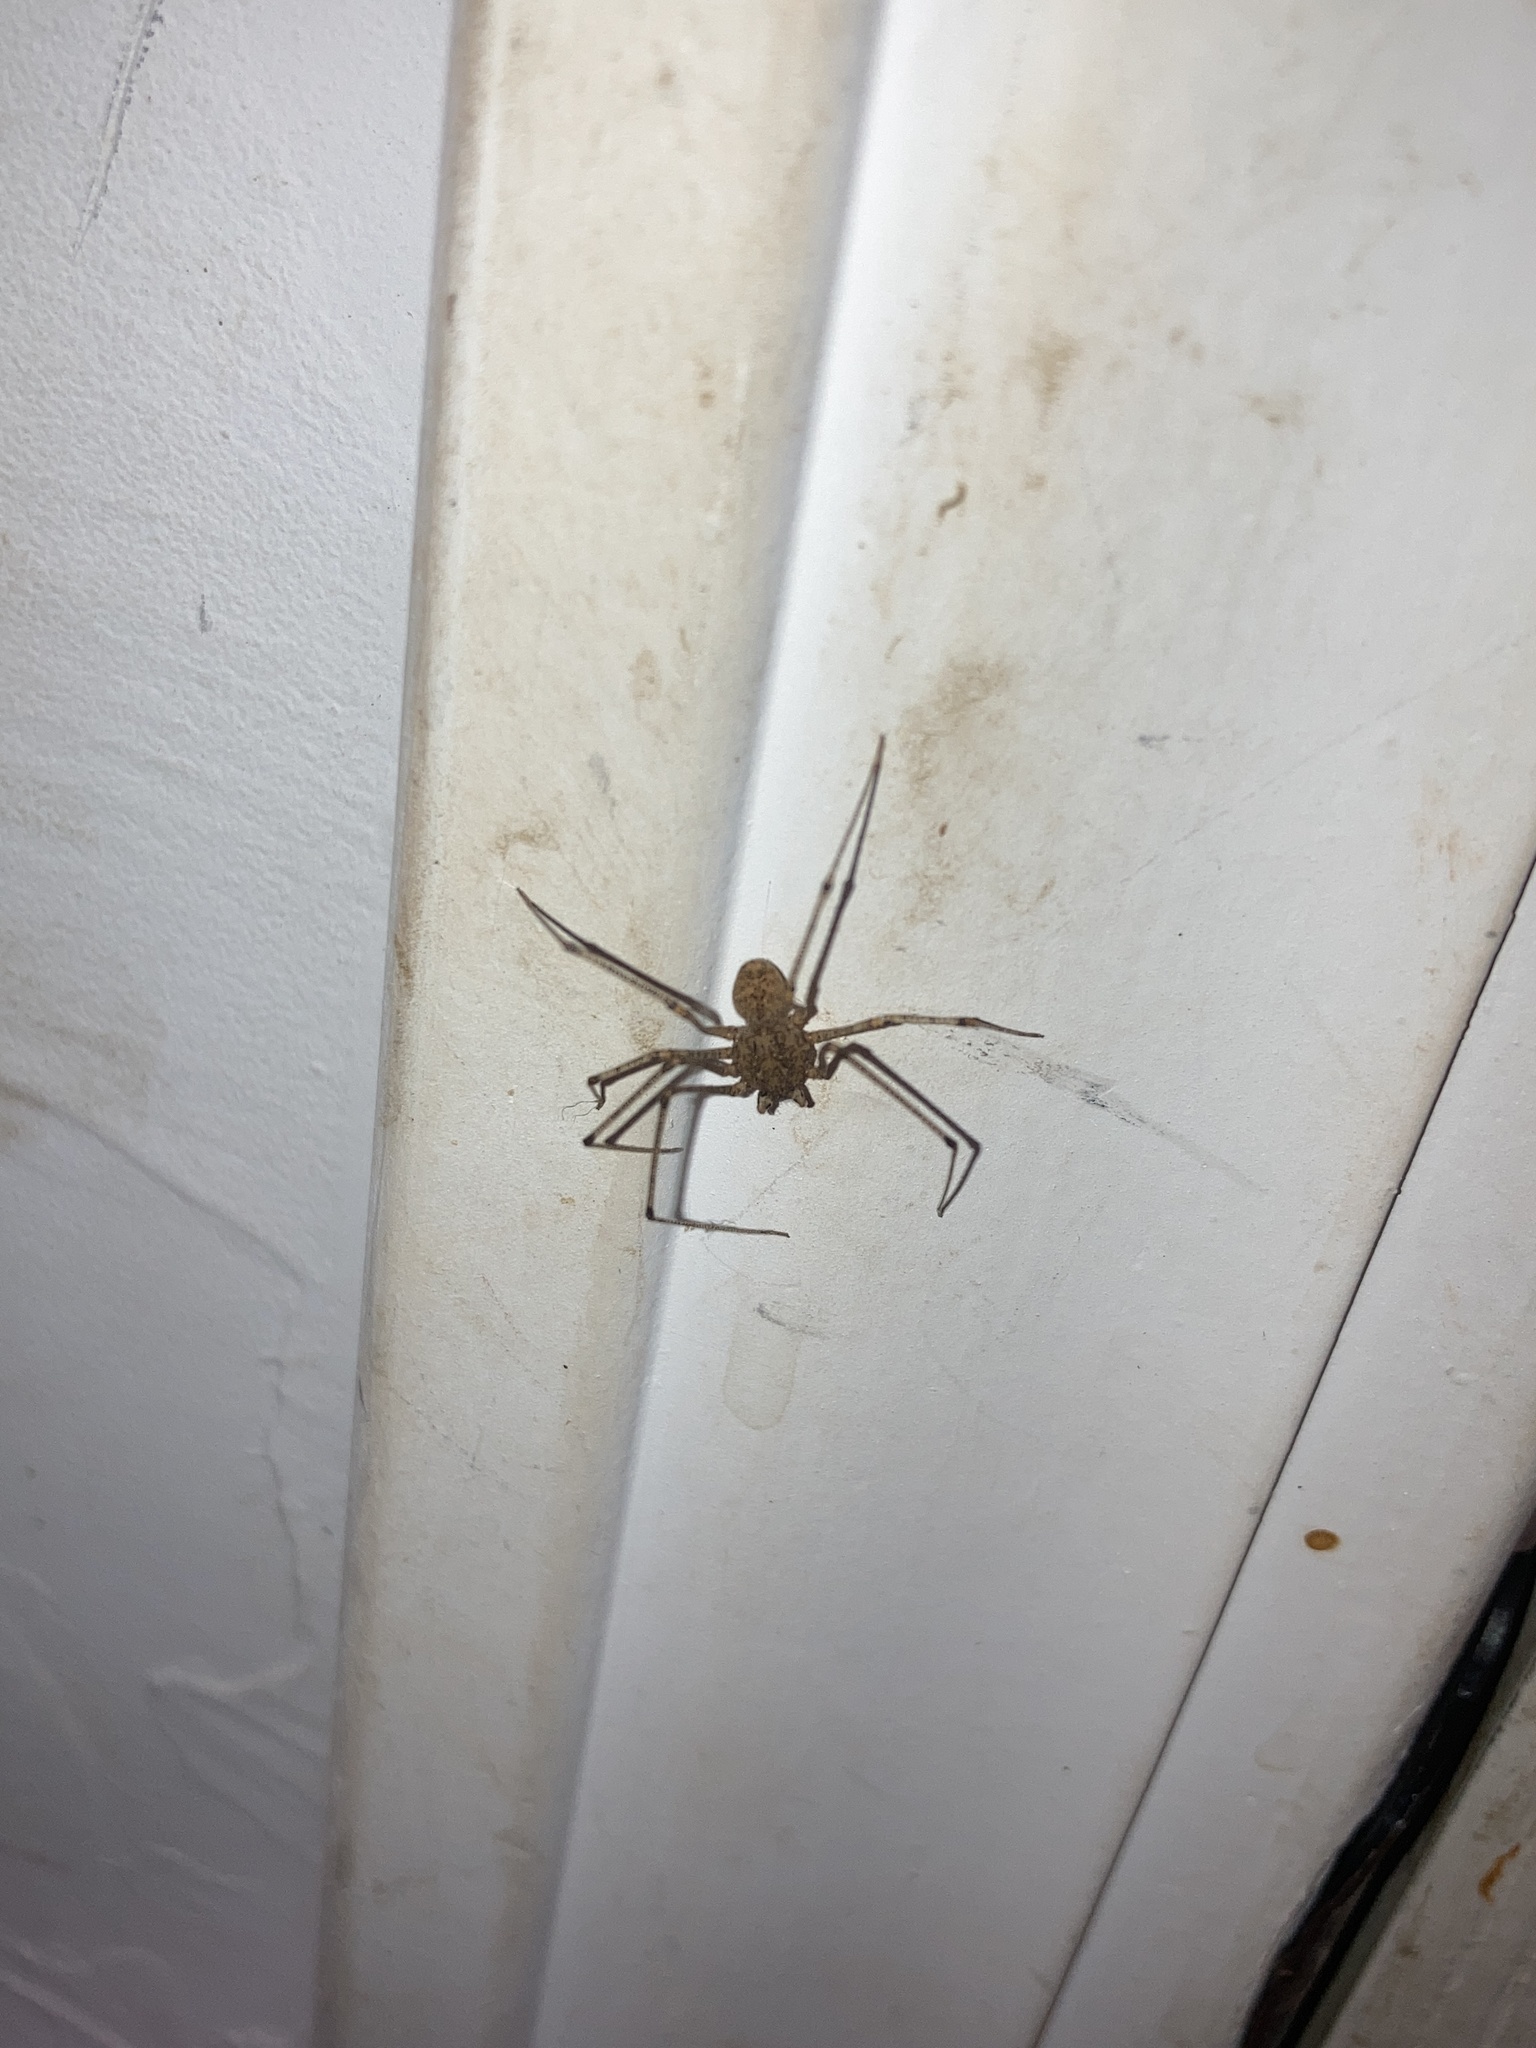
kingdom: Animalia
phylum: Arthropoda
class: Arachnida
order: Araneae
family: Scytodidae
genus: Scytodes
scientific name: Scytodes atlacoya
